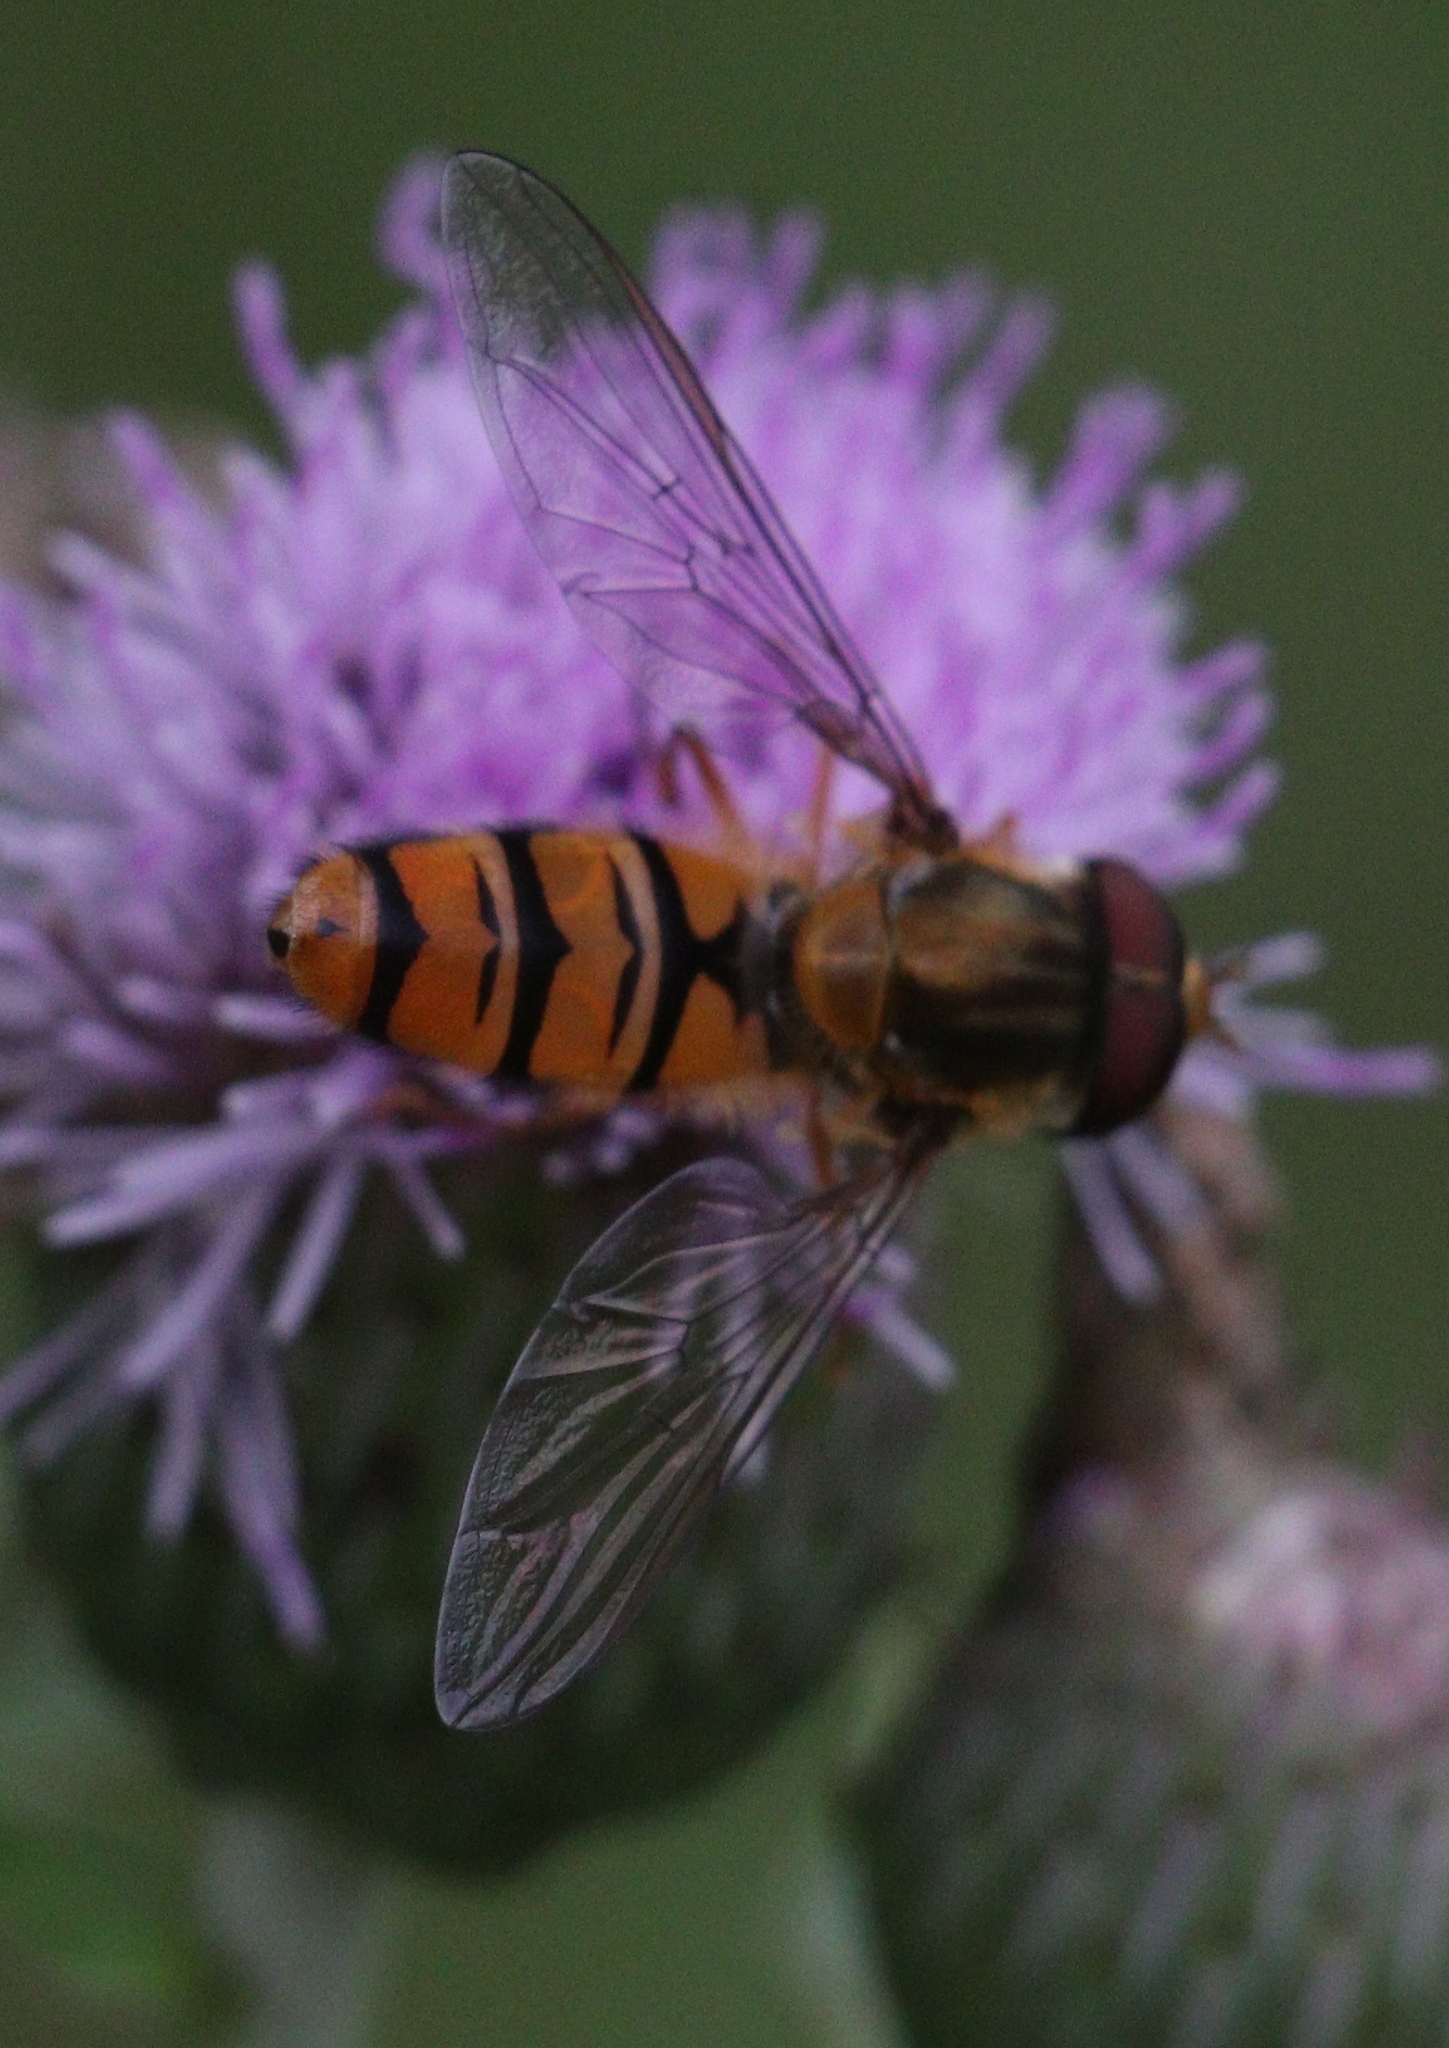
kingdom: Animalia
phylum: Arthropoda
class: Insecta
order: Diptera
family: Syrphidae
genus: Episyrphus
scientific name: Episyrphus balteatus
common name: Marmalade hoverfly
